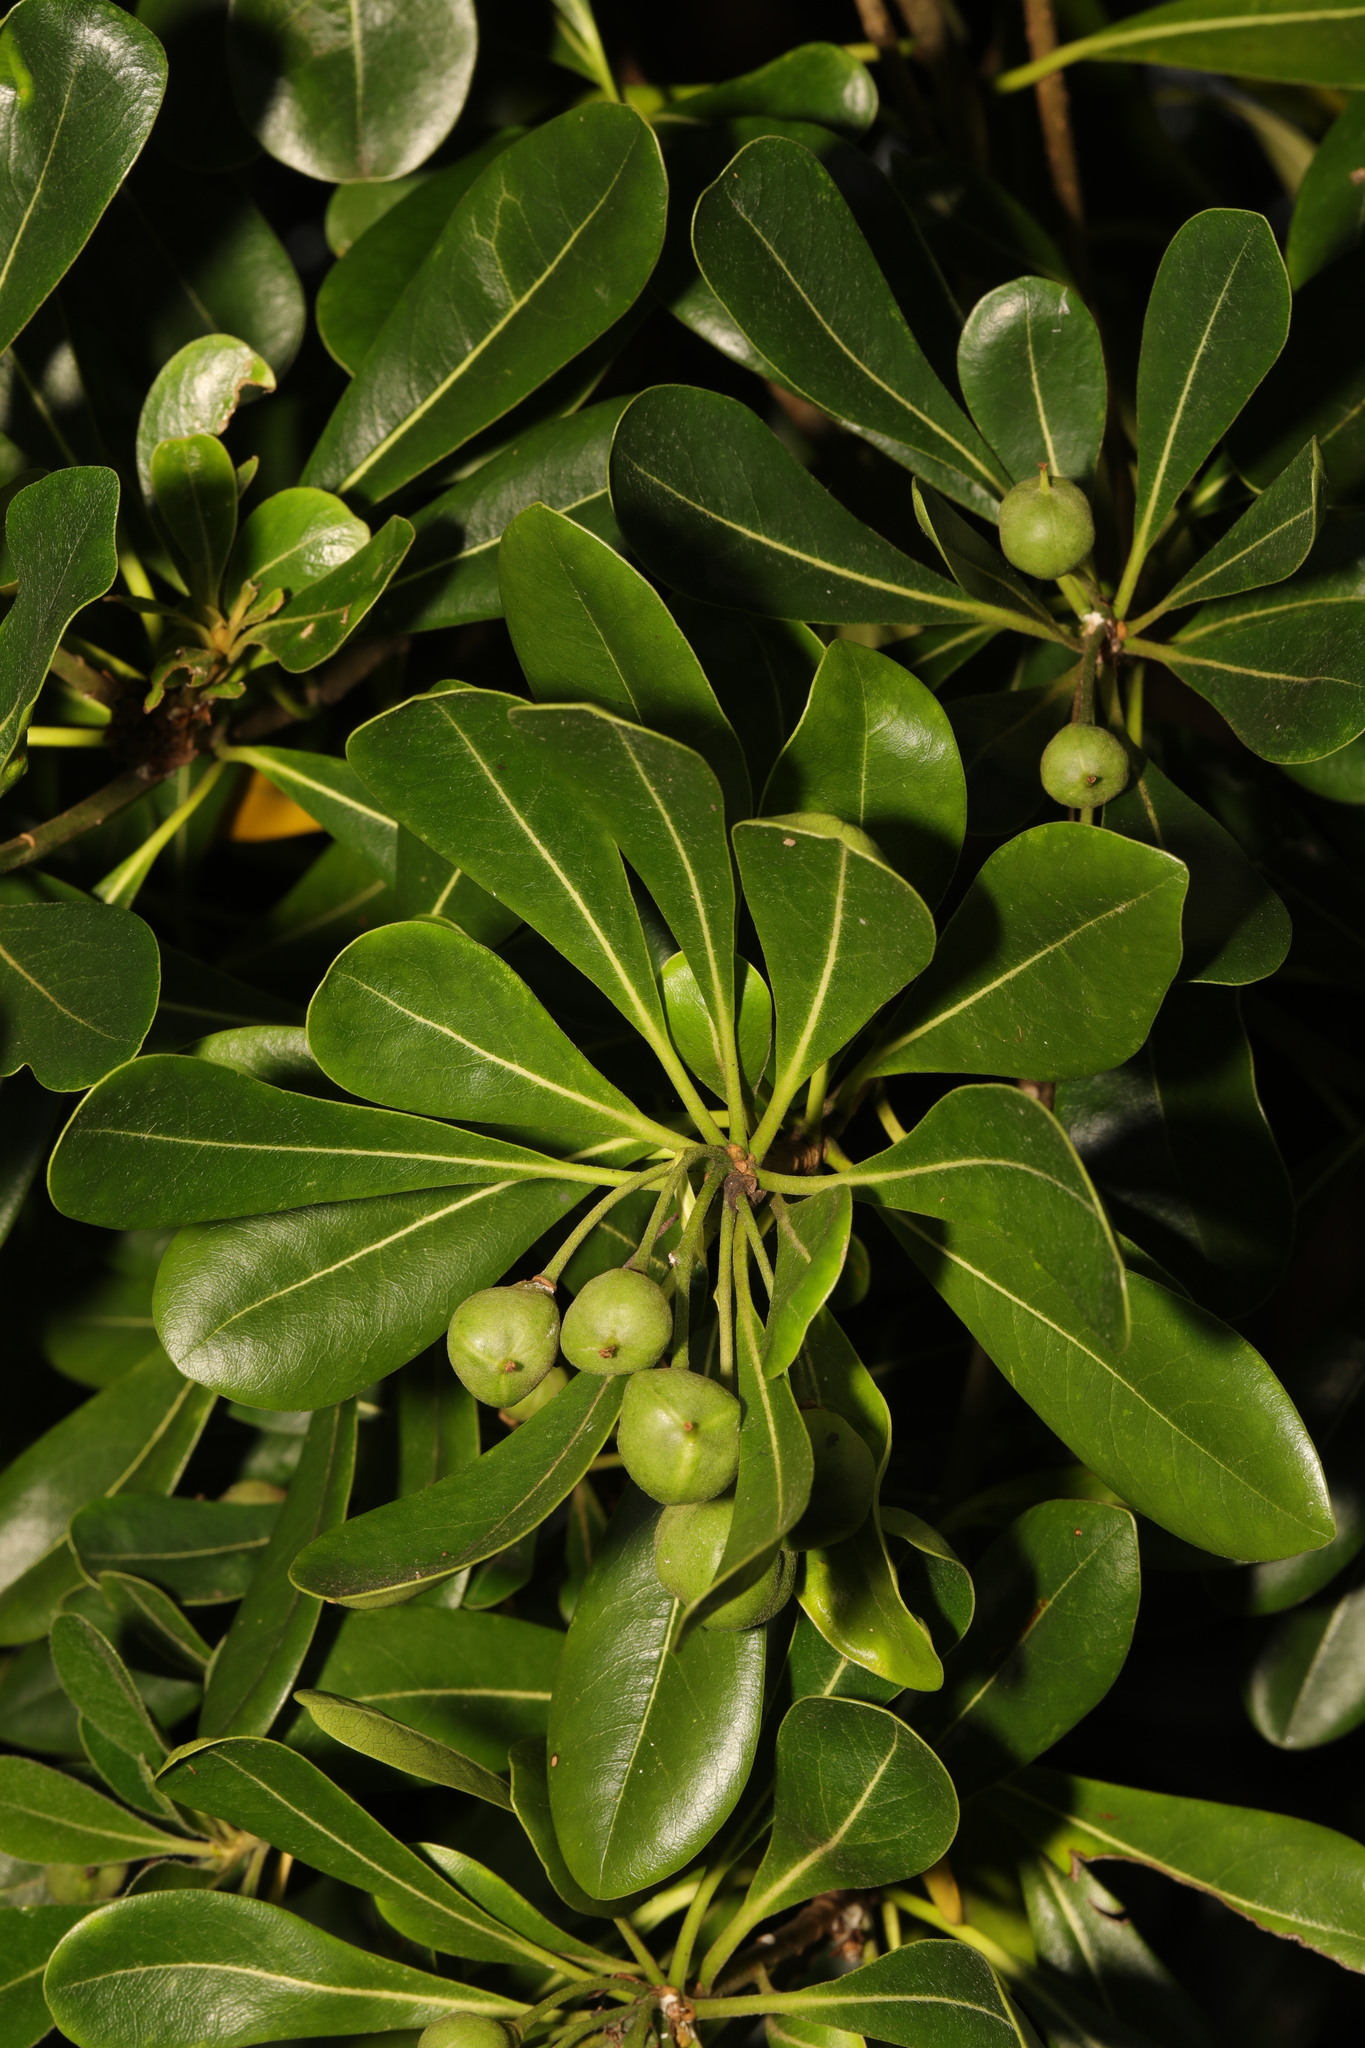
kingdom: Plantae
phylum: Tracheophyta
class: Magnoliopsida
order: Apiales
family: Pittosporaceae
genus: Pittosporum
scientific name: Pittosporum tobira
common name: Japanese cheesewood
